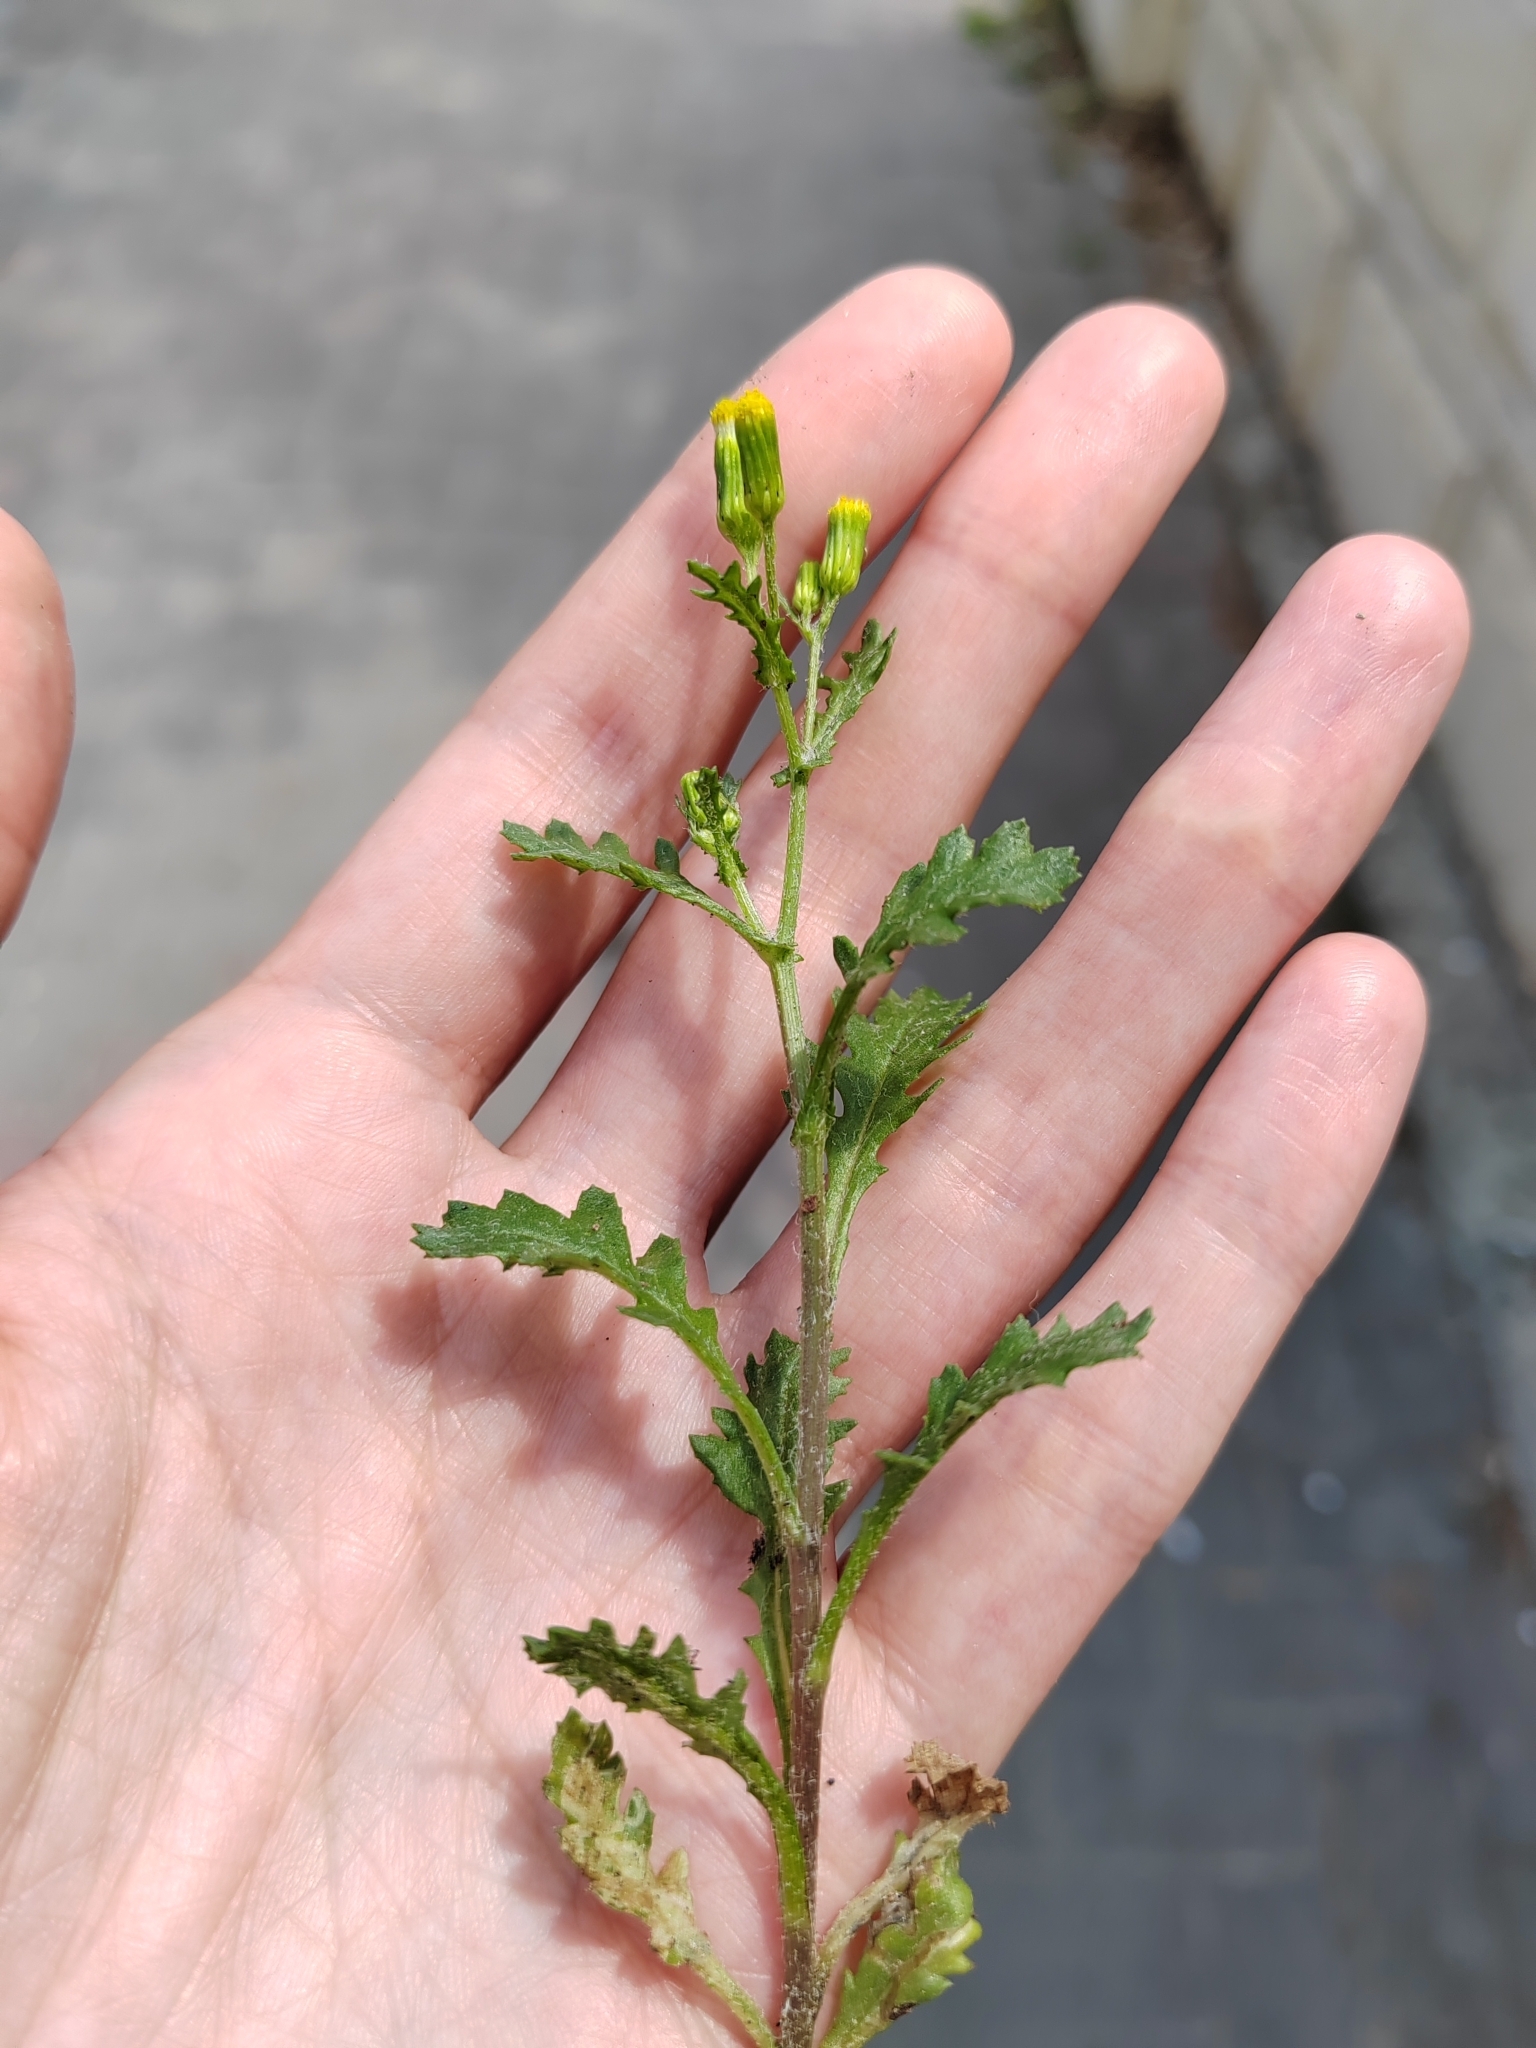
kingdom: Plantae
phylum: Tracheophyta
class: Magnoliopsida
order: Asterales
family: Asteraceae
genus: Senecio
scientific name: Senecio vulgaris
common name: Old-man-in-the-spring
